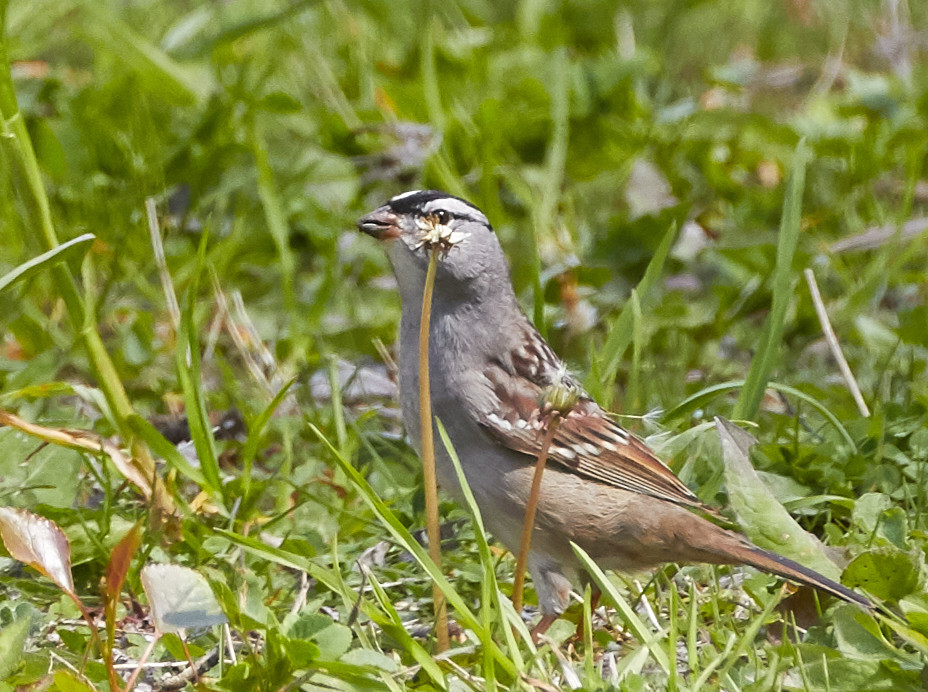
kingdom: Animalia
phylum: Chordata
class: Aves
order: Passeriformes
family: Passerellidae
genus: Zonotrichia
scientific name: Zonotrichia leucophrys
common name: White-crowned sparrow
